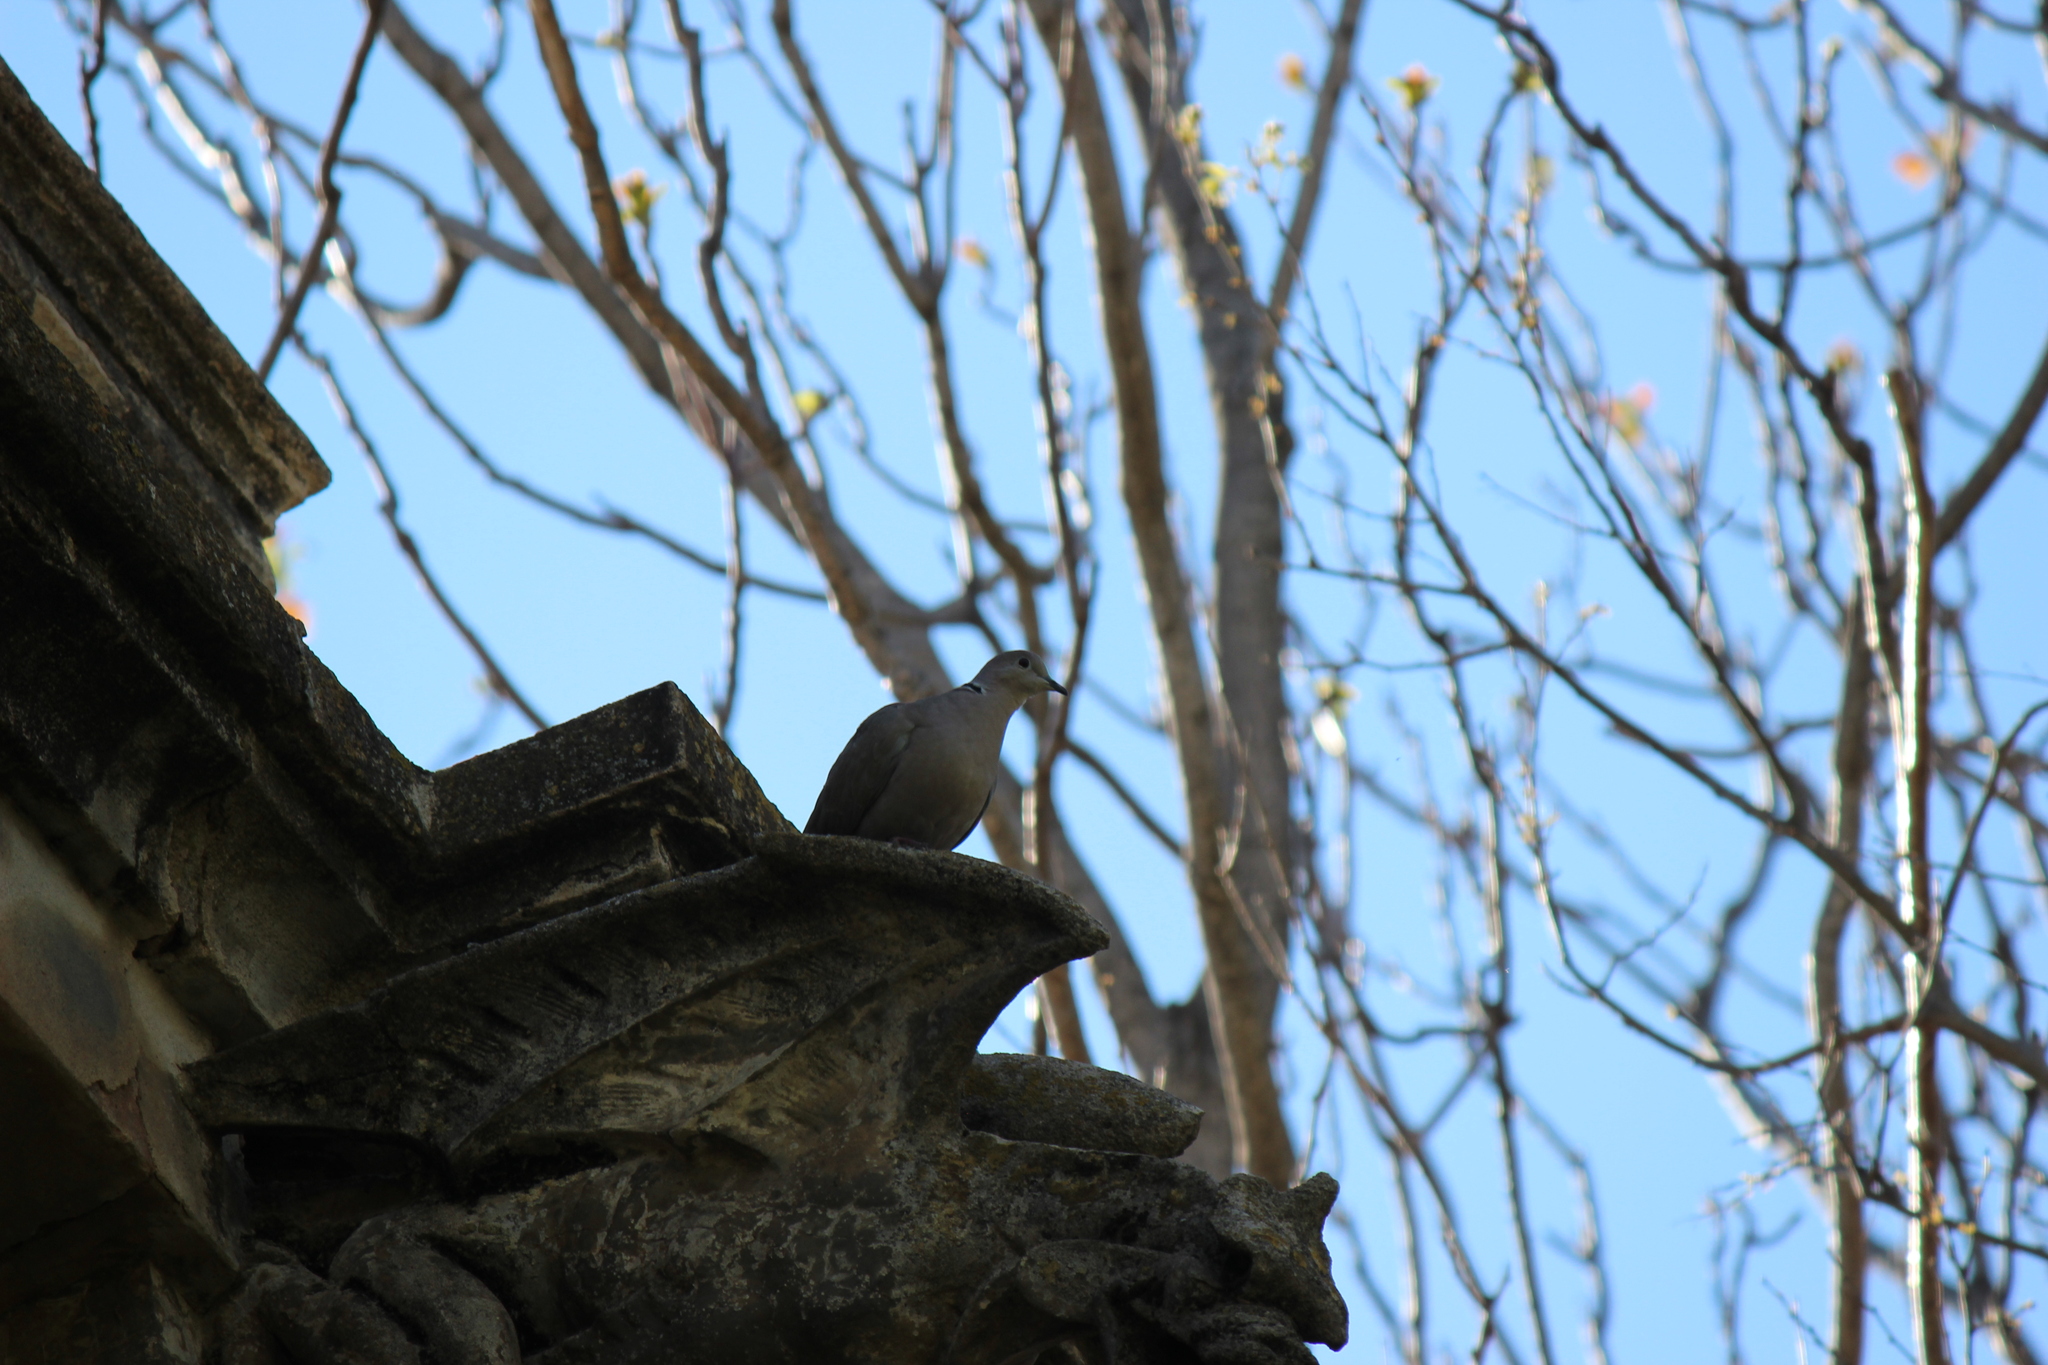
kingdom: Animalia
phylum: Chordata
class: Aves
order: Columbiformes
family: Columbidae
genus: Streptopelia
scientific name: Streptopelia decaocto
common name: Eurasian collared dove
